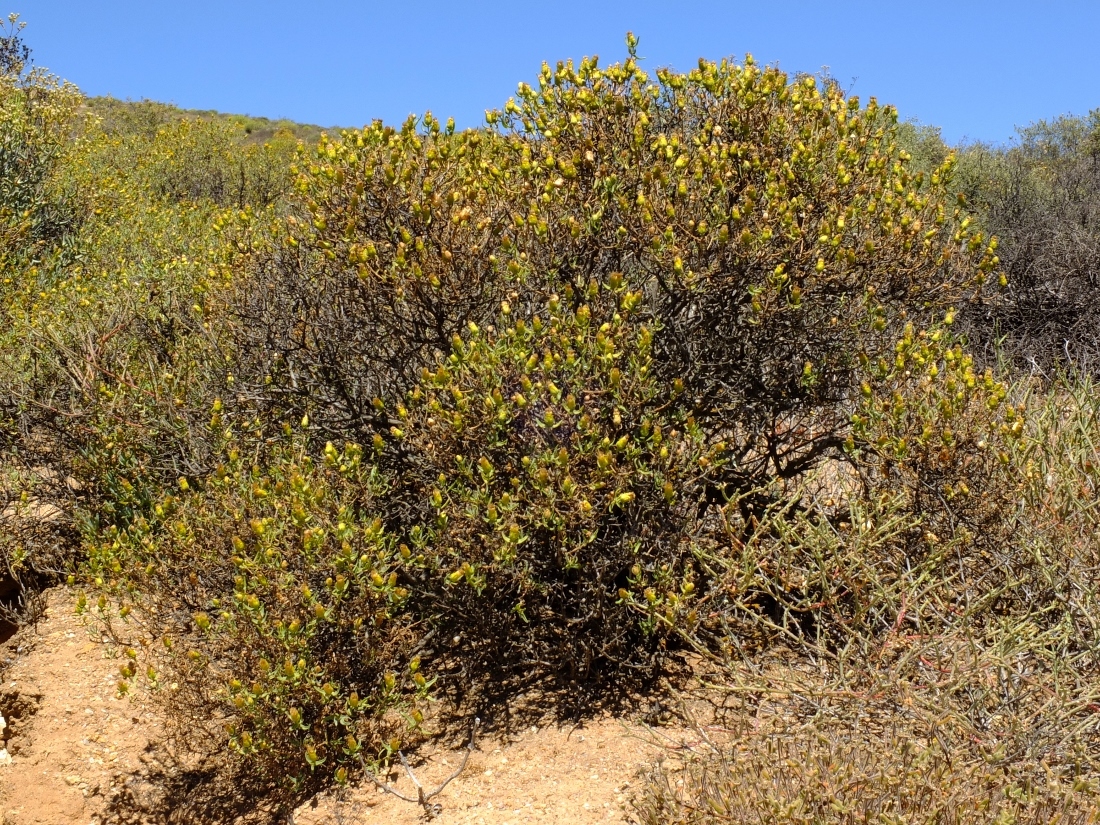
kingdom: Plantae
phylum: Tracheophyta
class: Magnoliopsida
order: Asterales
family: Asteraceae
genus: Pteronia
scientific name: Pteronia glabrata
